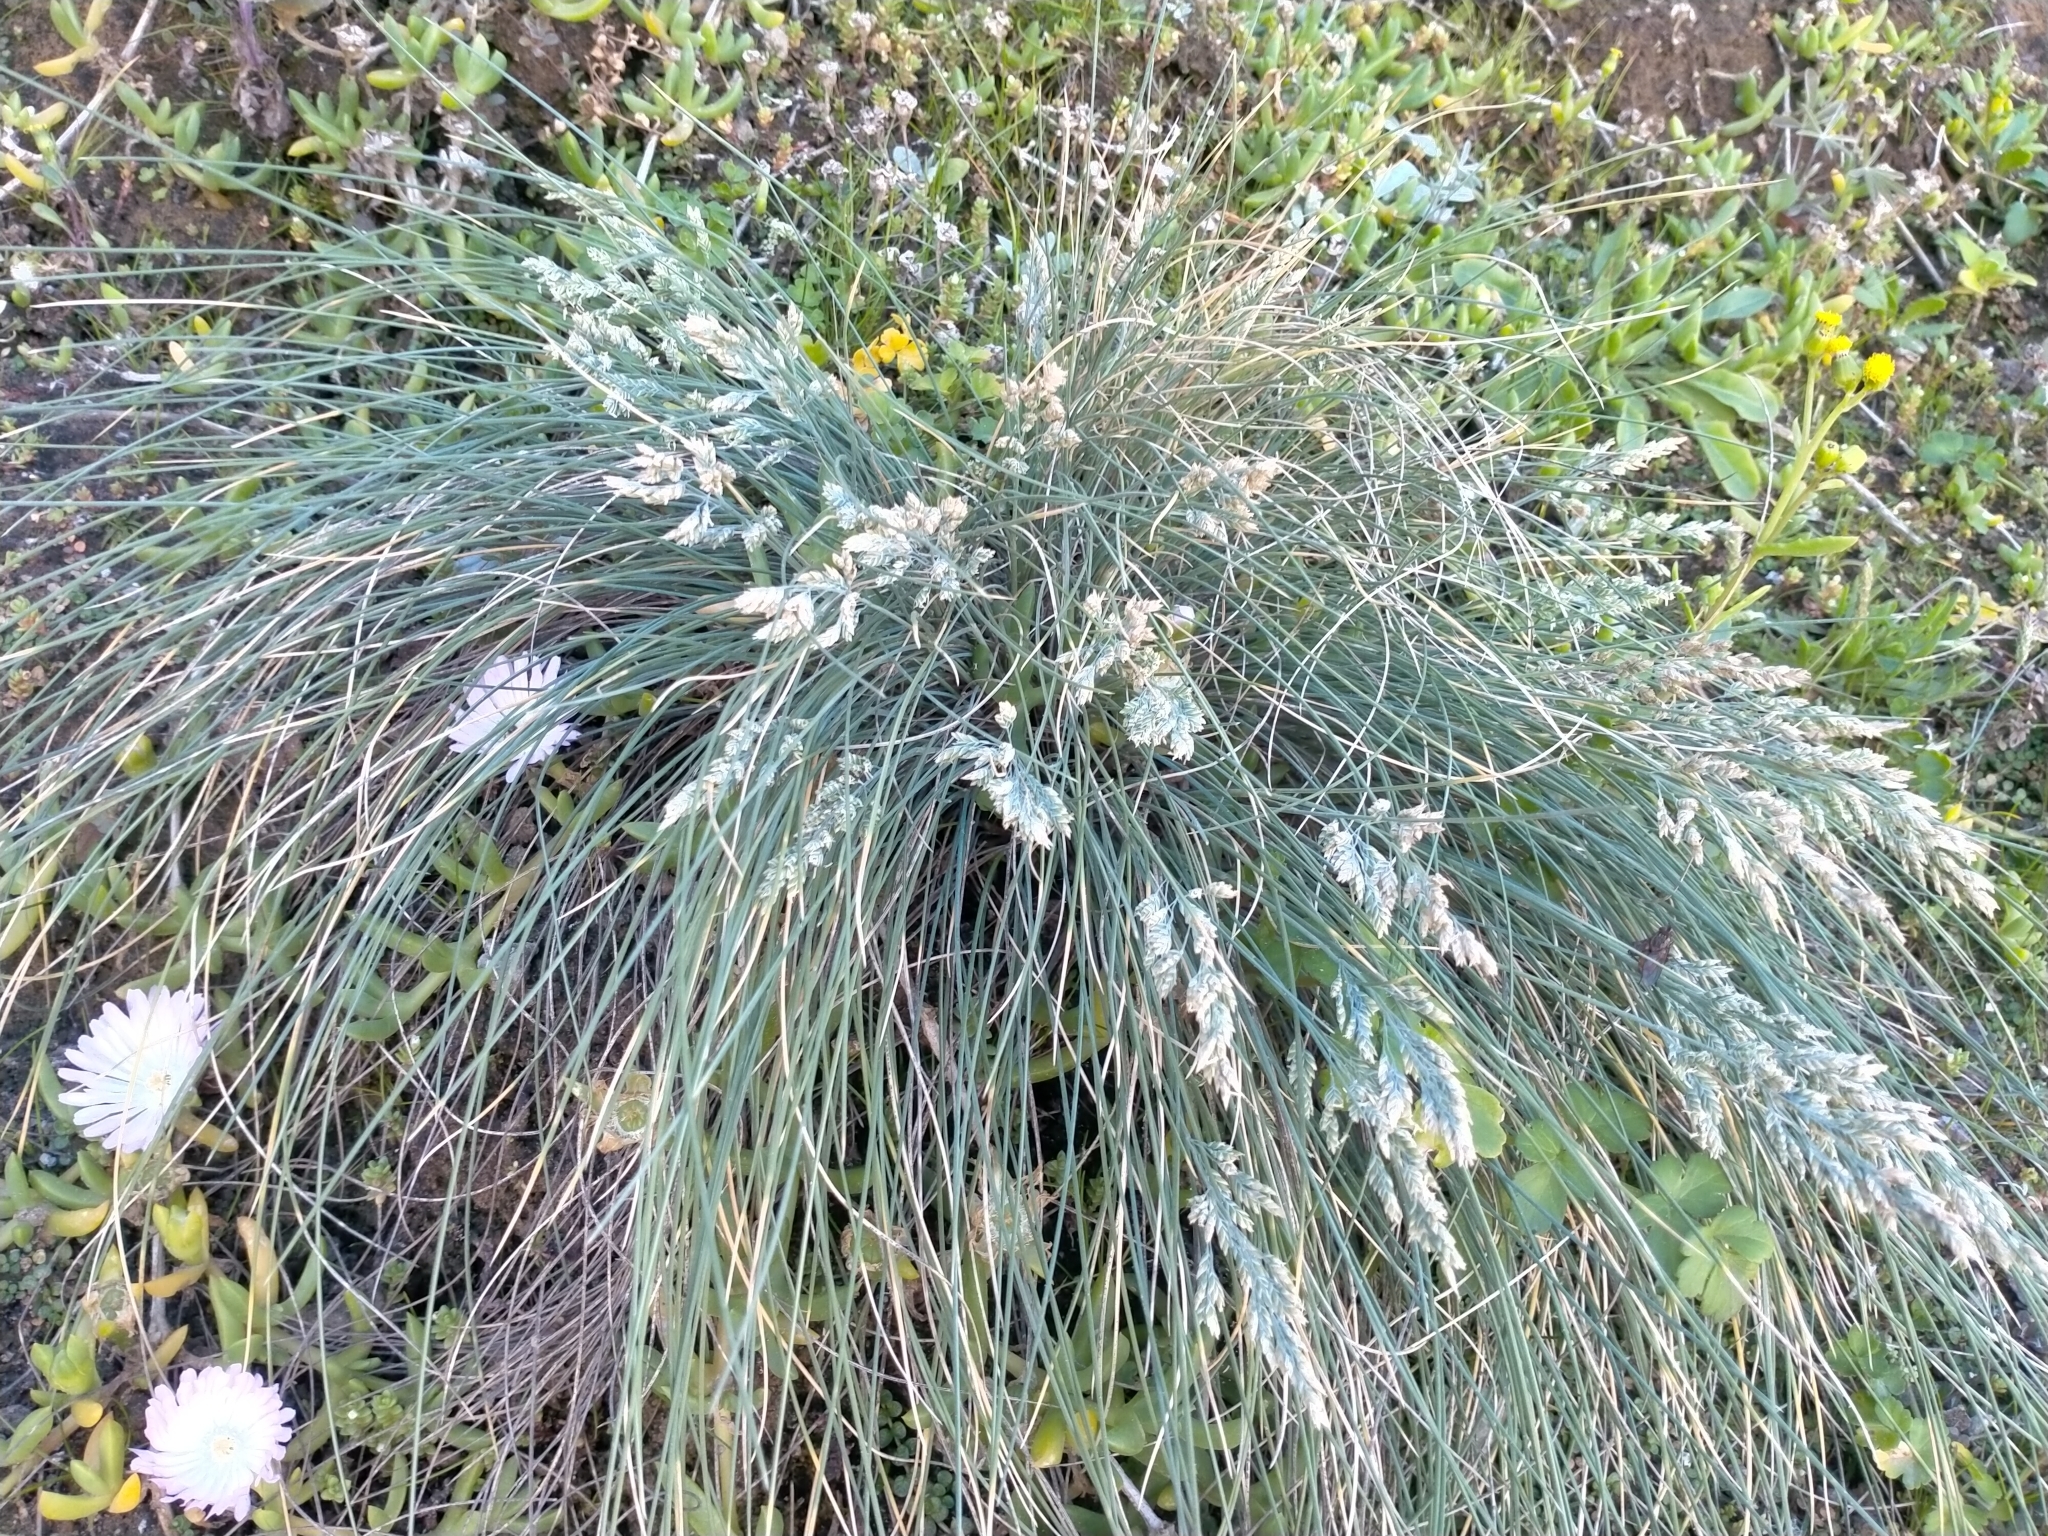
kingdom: Plantae
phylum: Tracheophyta
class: Liliopsida
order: Poales
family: Poaceae
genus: Poa
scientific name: Poa astonii
